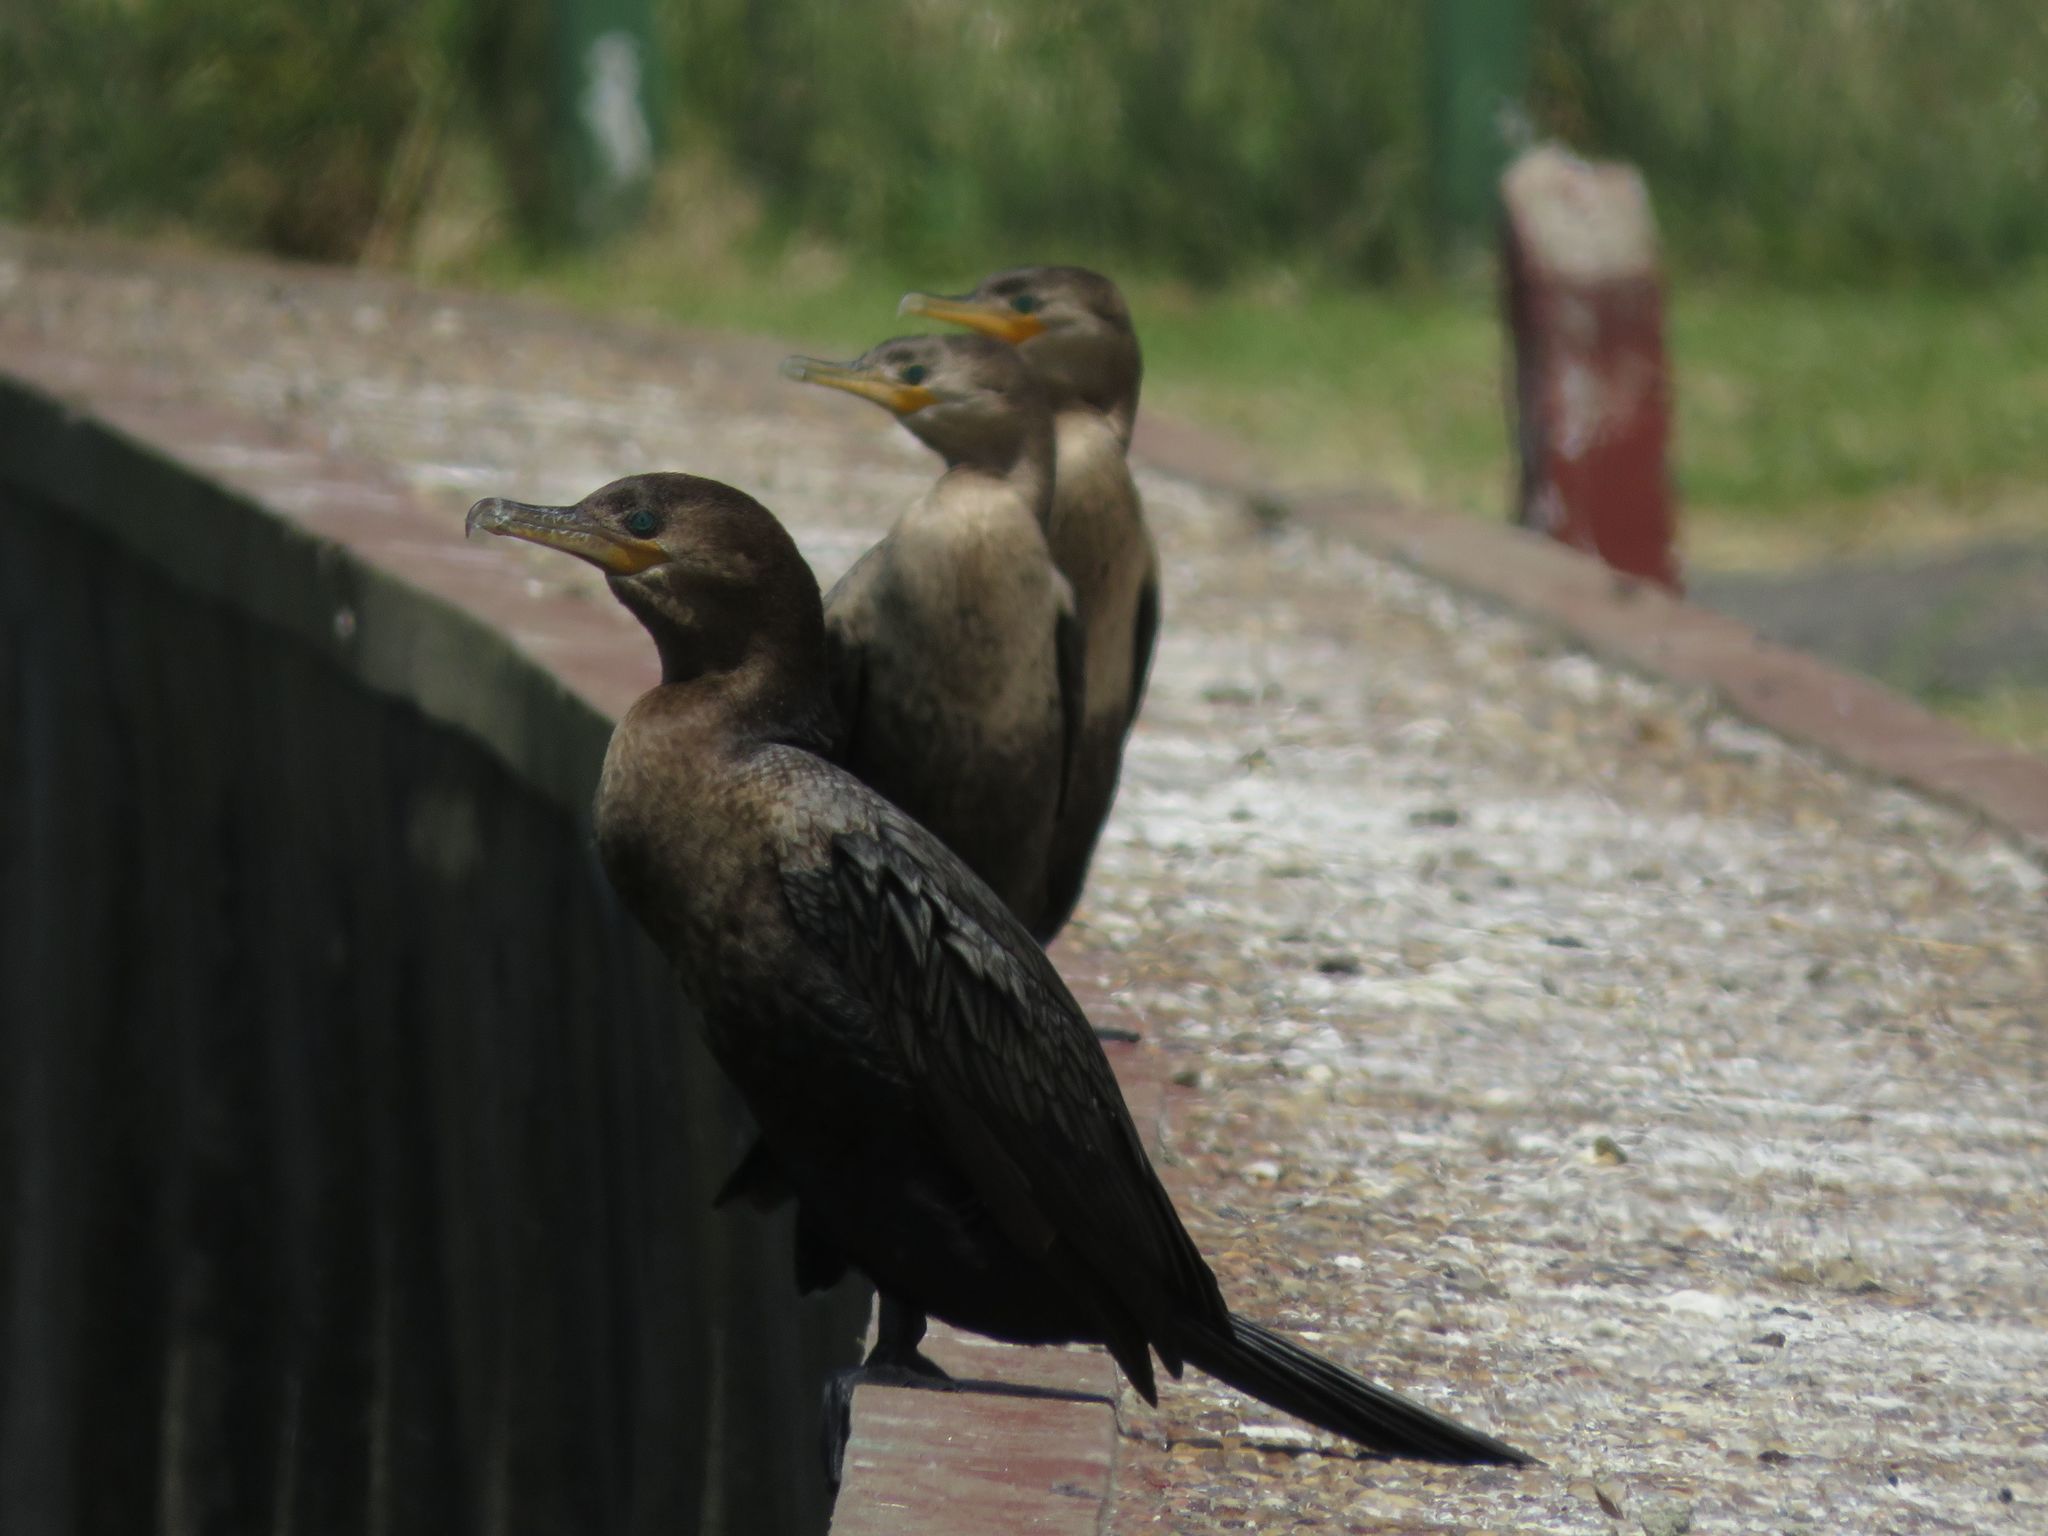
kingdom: Animalia
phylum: Chordata
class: Aves
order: Suliformes
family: Phalacrocoracidae
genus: Phalacrocorax
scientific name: Phalacrocorax brasilianus
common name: Neotropic cormorant
